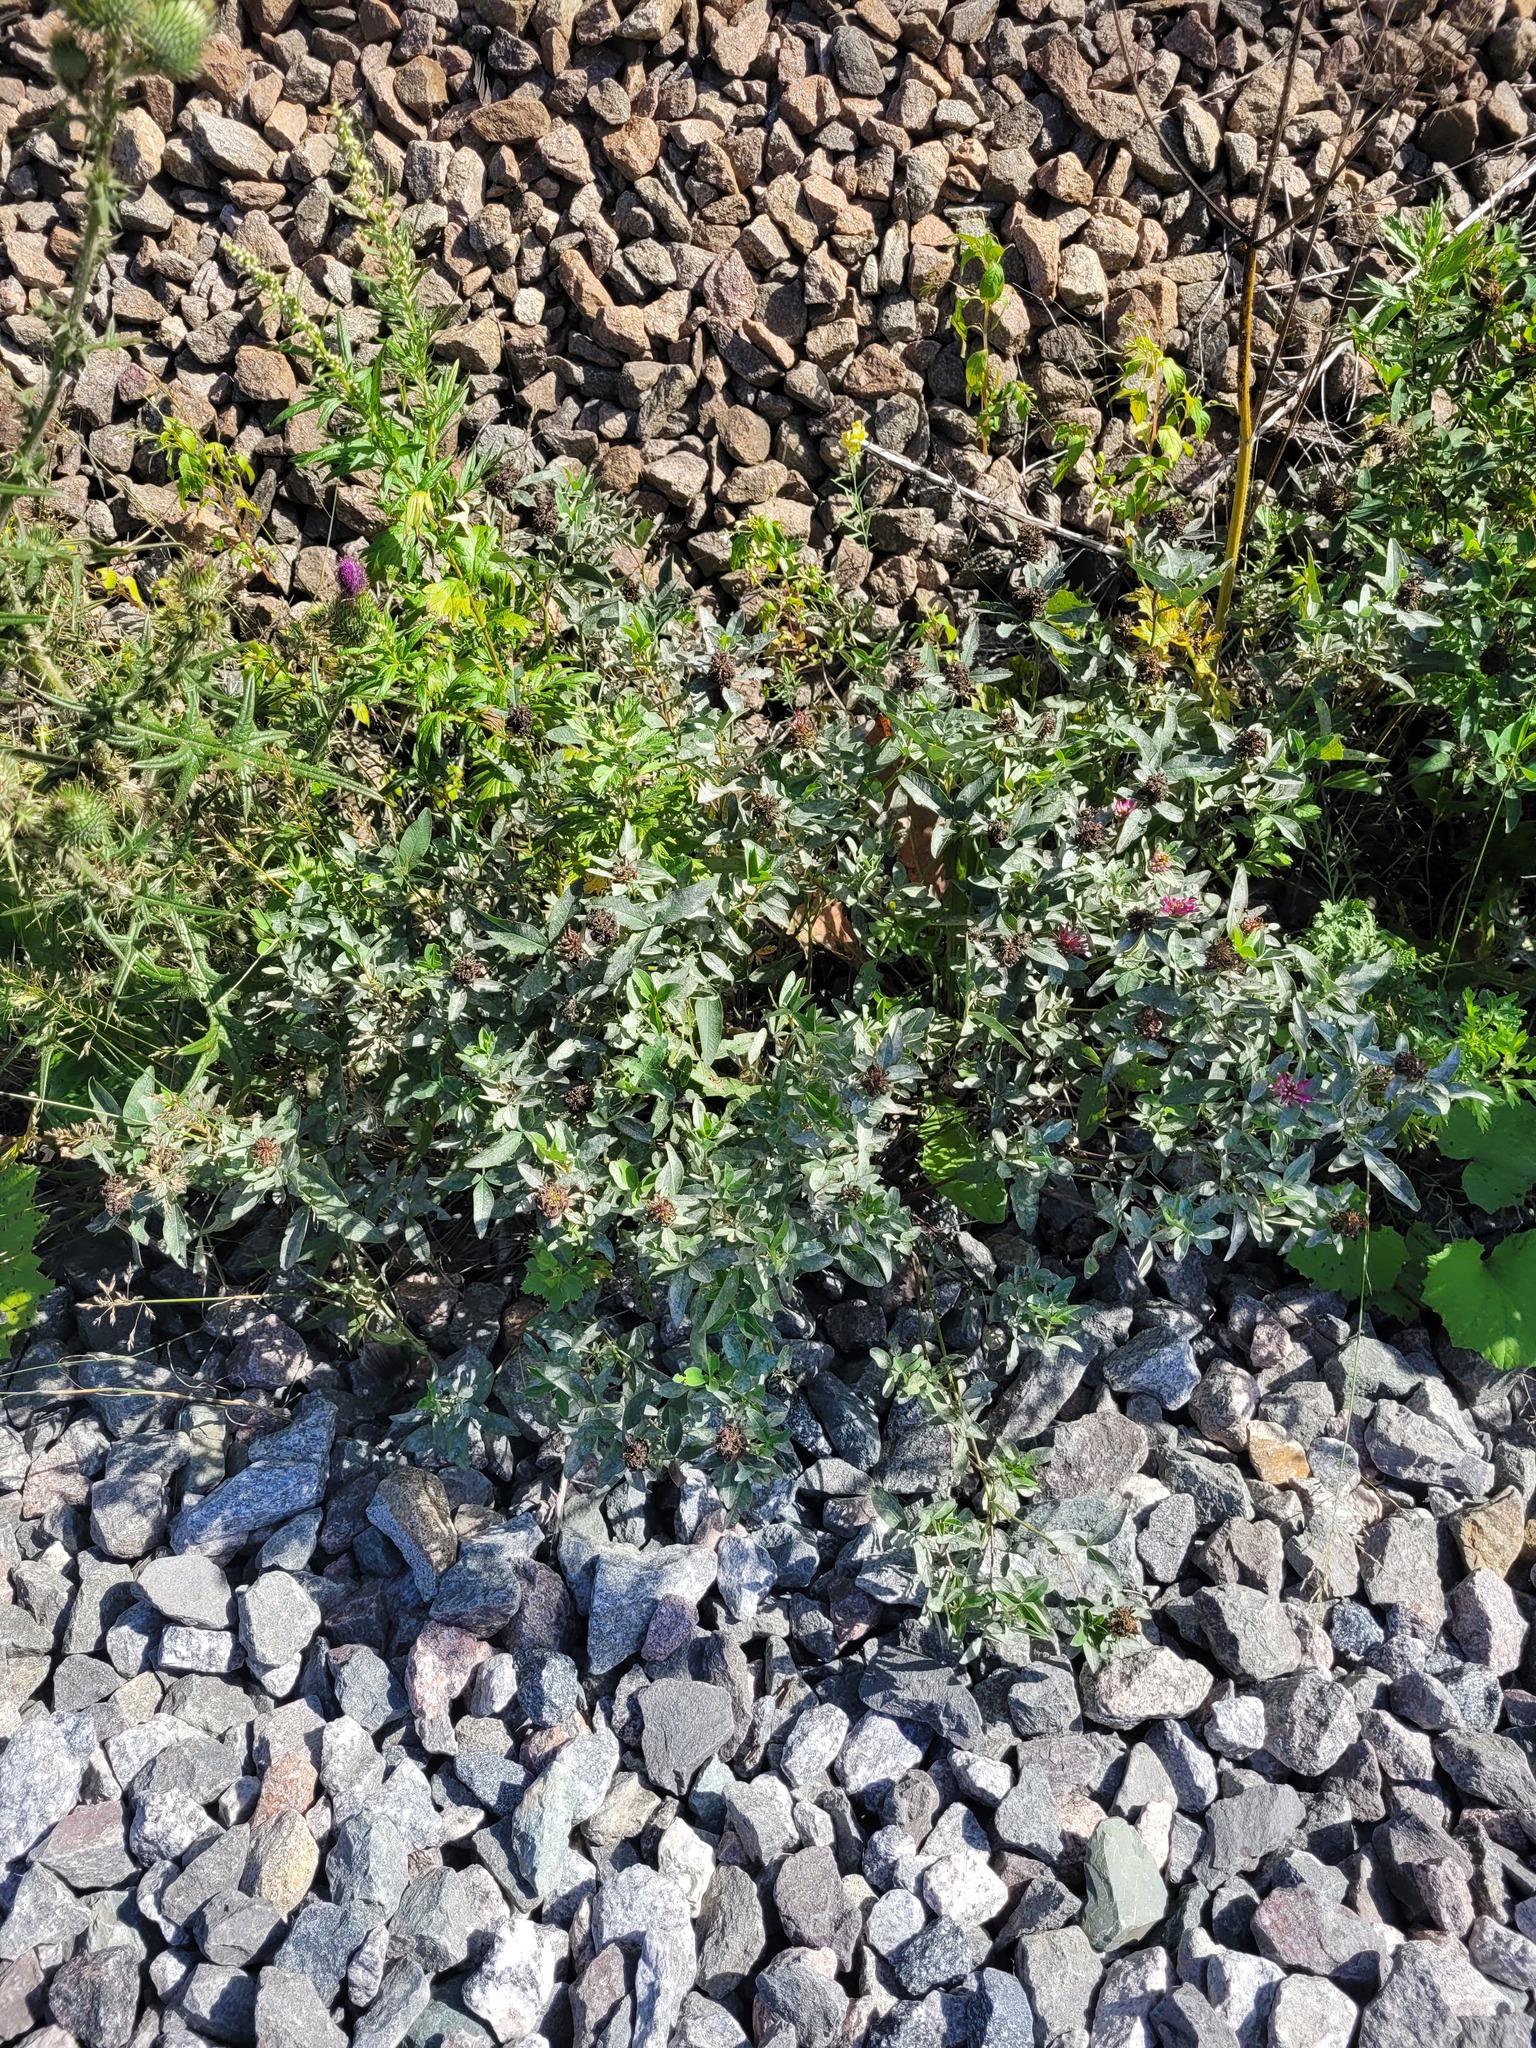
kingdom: Plantae
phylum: Tracheophyta
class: Magnoliopsida
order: Fabales
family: Fabaceae
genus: Trifolium
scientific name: Trifolium medium
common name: Zigzag clover
